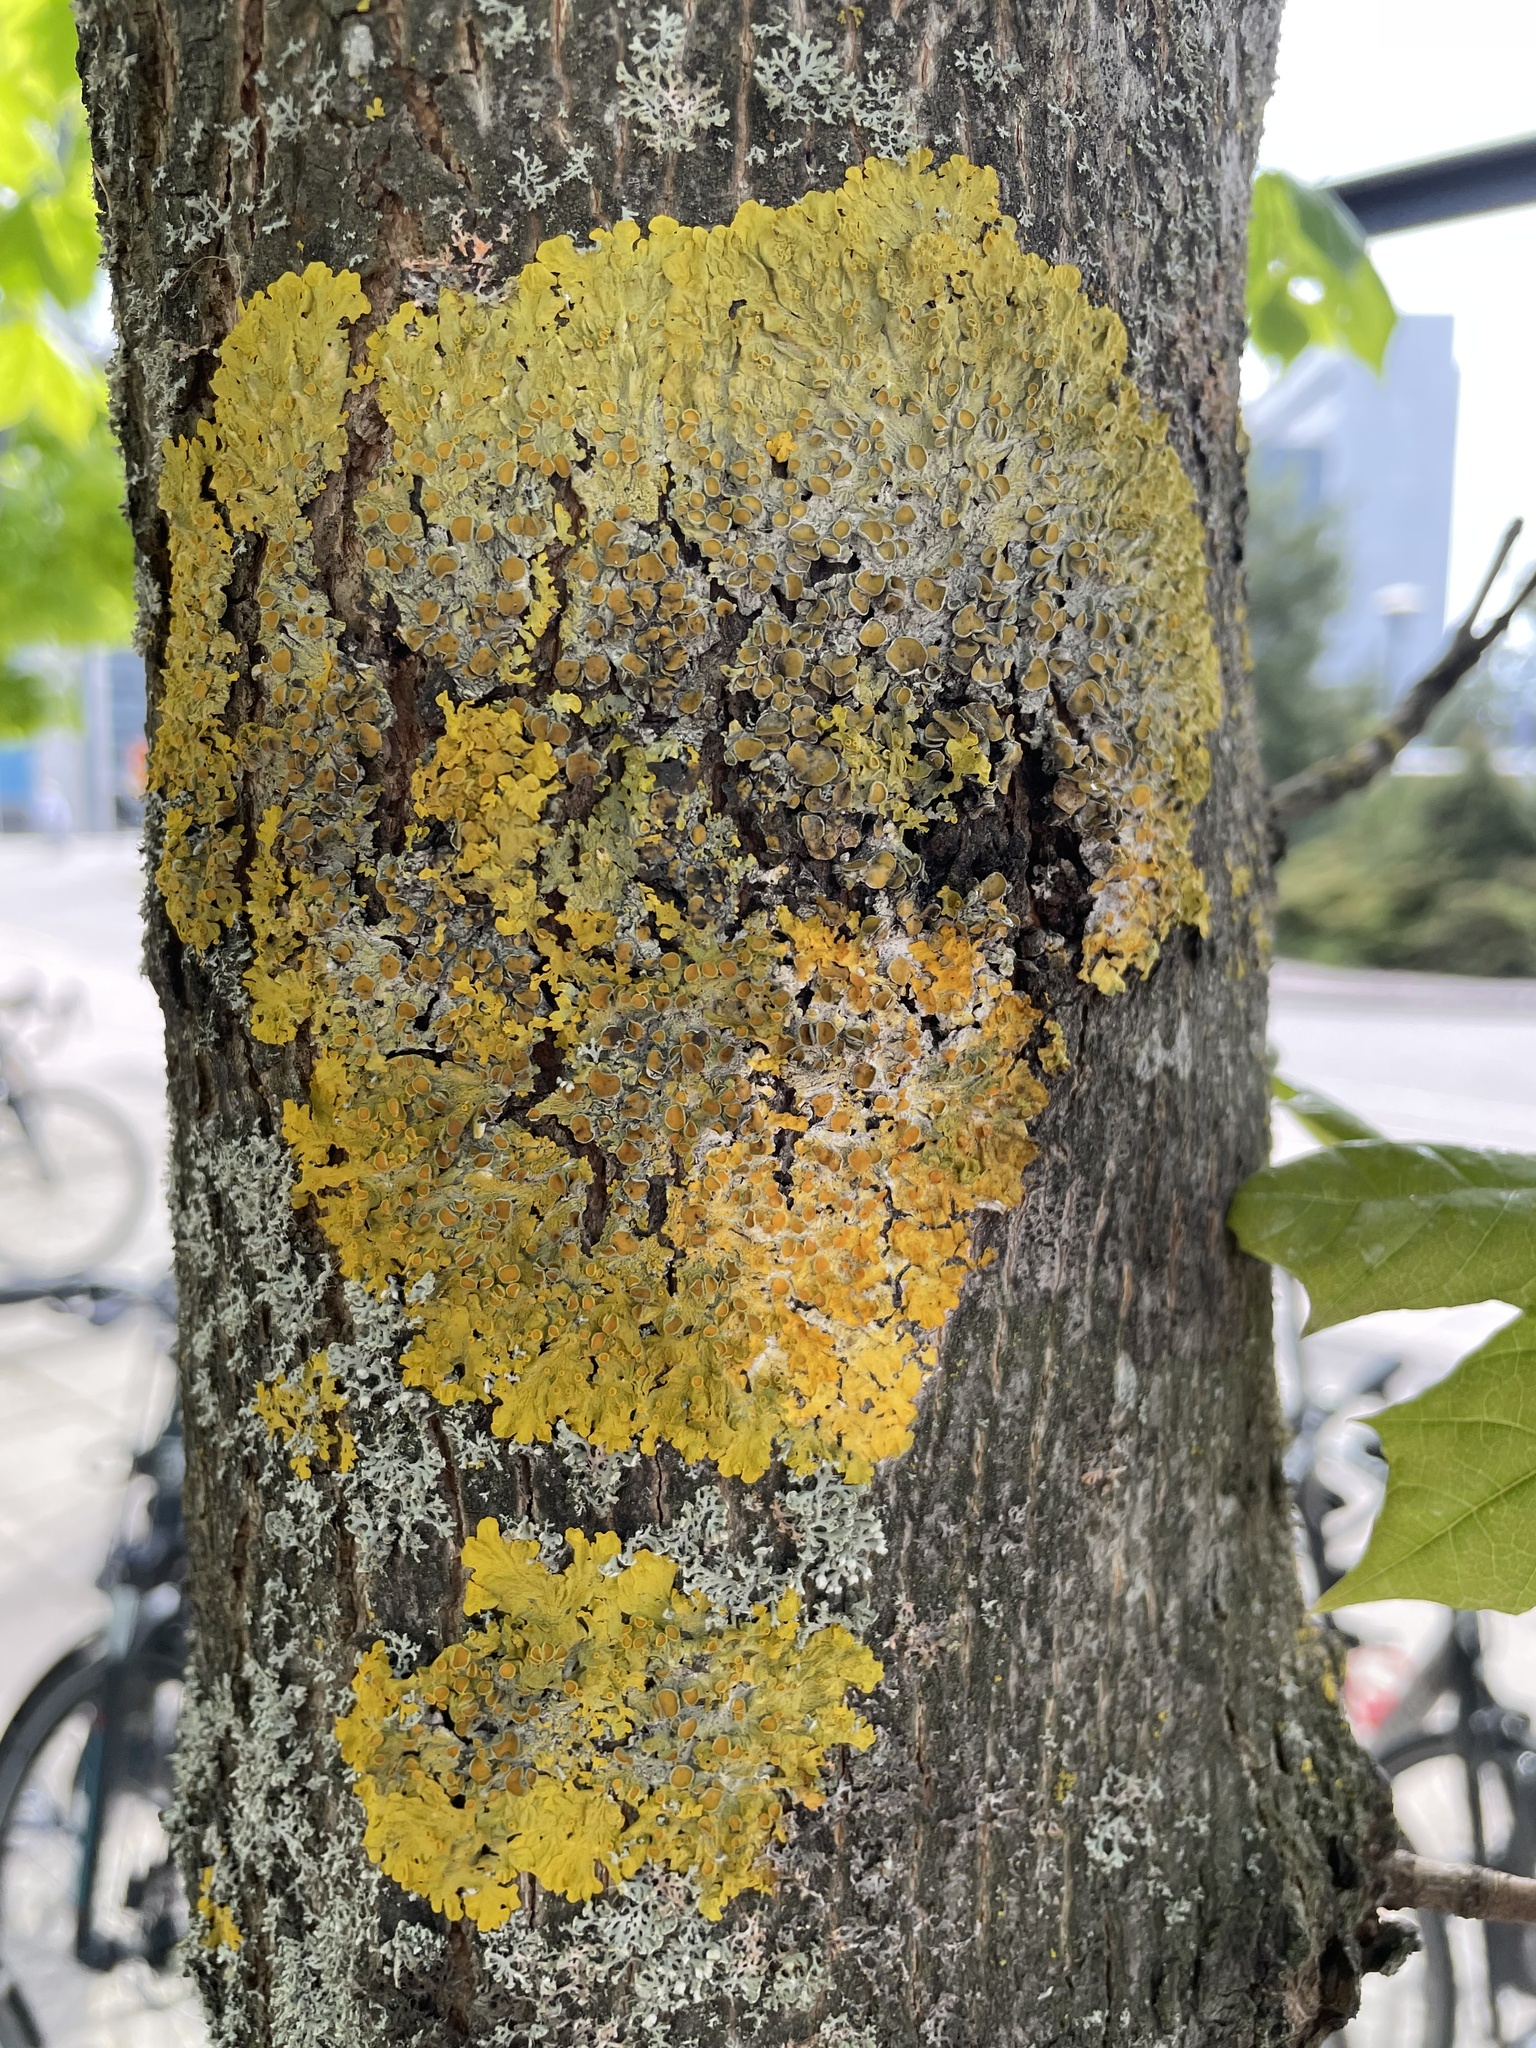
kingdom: Fungi
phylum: Ascomycota
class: Lecanoromycetes
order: Teloschistales
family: Teloschistaceae
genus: Xanthoria
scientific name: Xanthoria parietina
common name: Common orange lichen
